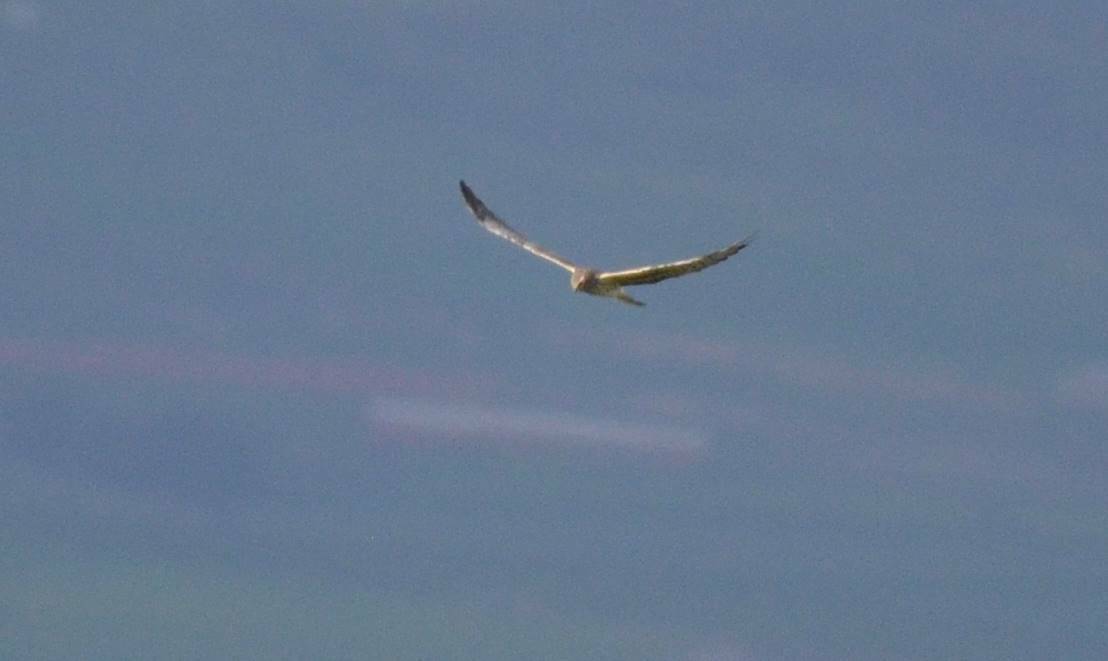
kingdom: Animalia
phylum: Chordata
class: Aves
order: Accipitriformes
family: Accipitridae
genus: Circus
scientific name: Circus pygargus
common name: Montagu's harrier
